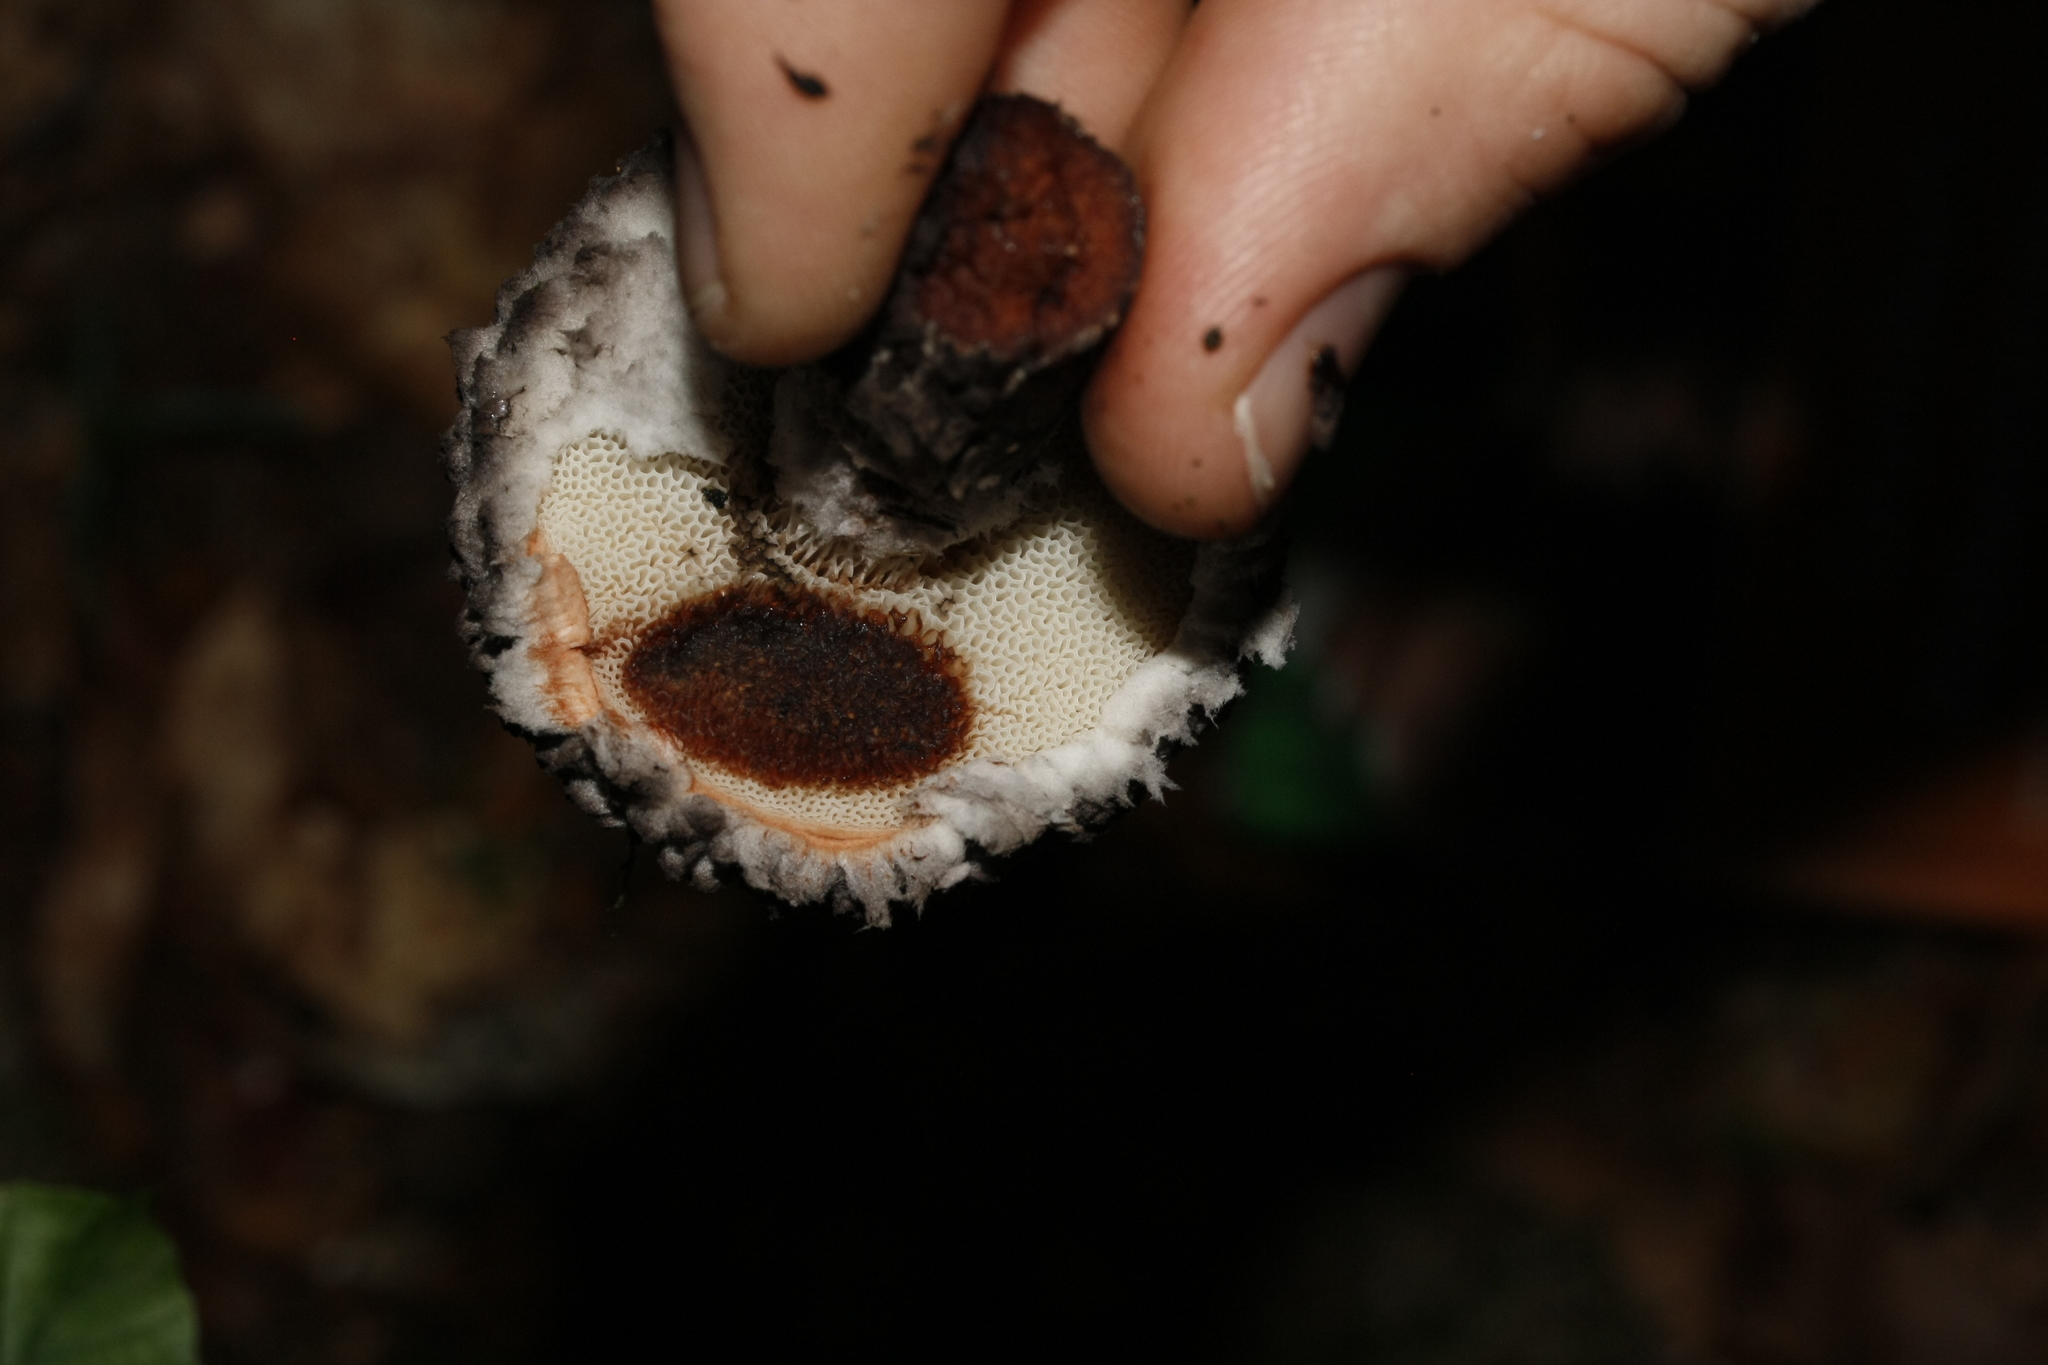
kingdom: Fungi
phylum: Basidiomycota
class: Agaricomycetes
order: Boletales
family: Boletaceae
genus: Strobilomyces
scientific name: Strobilomyces strobilaceus
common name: Old man of the woods
